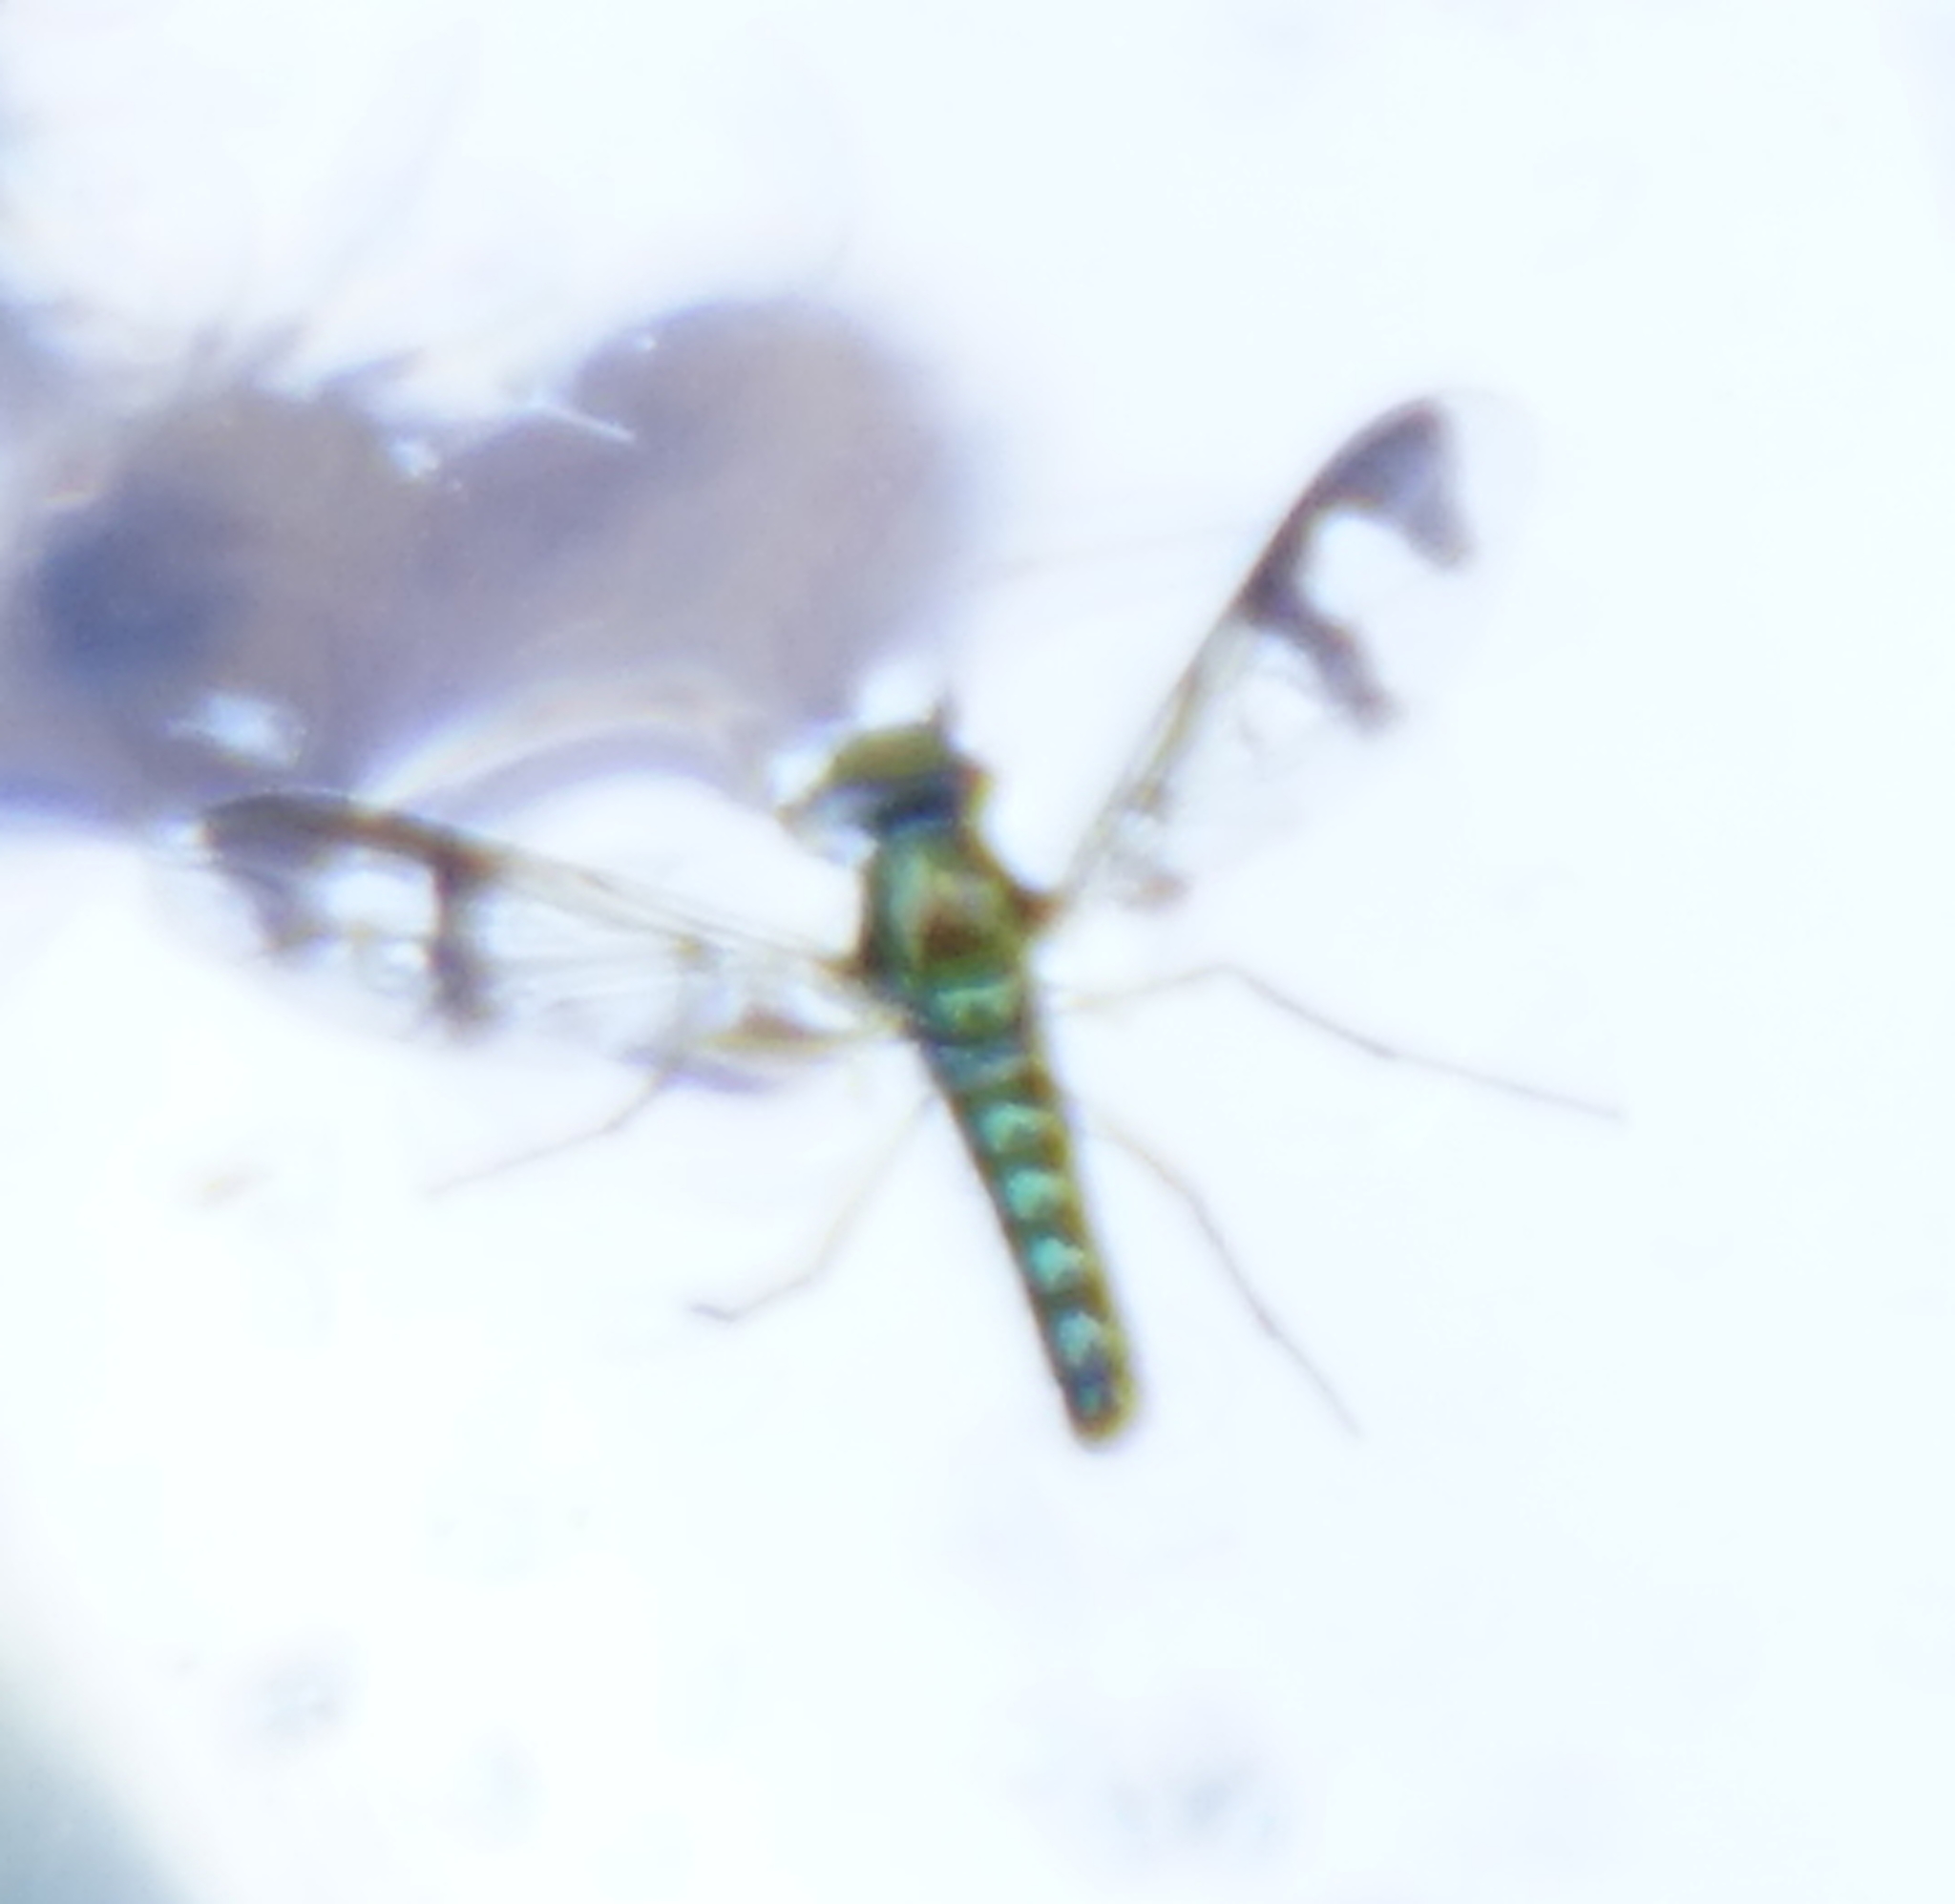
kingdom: Animalia
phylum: Arthropoda
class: Insecta
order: Diptera
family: Dolichopodidae
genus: Austrosciapus
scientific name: Austrosciapus
